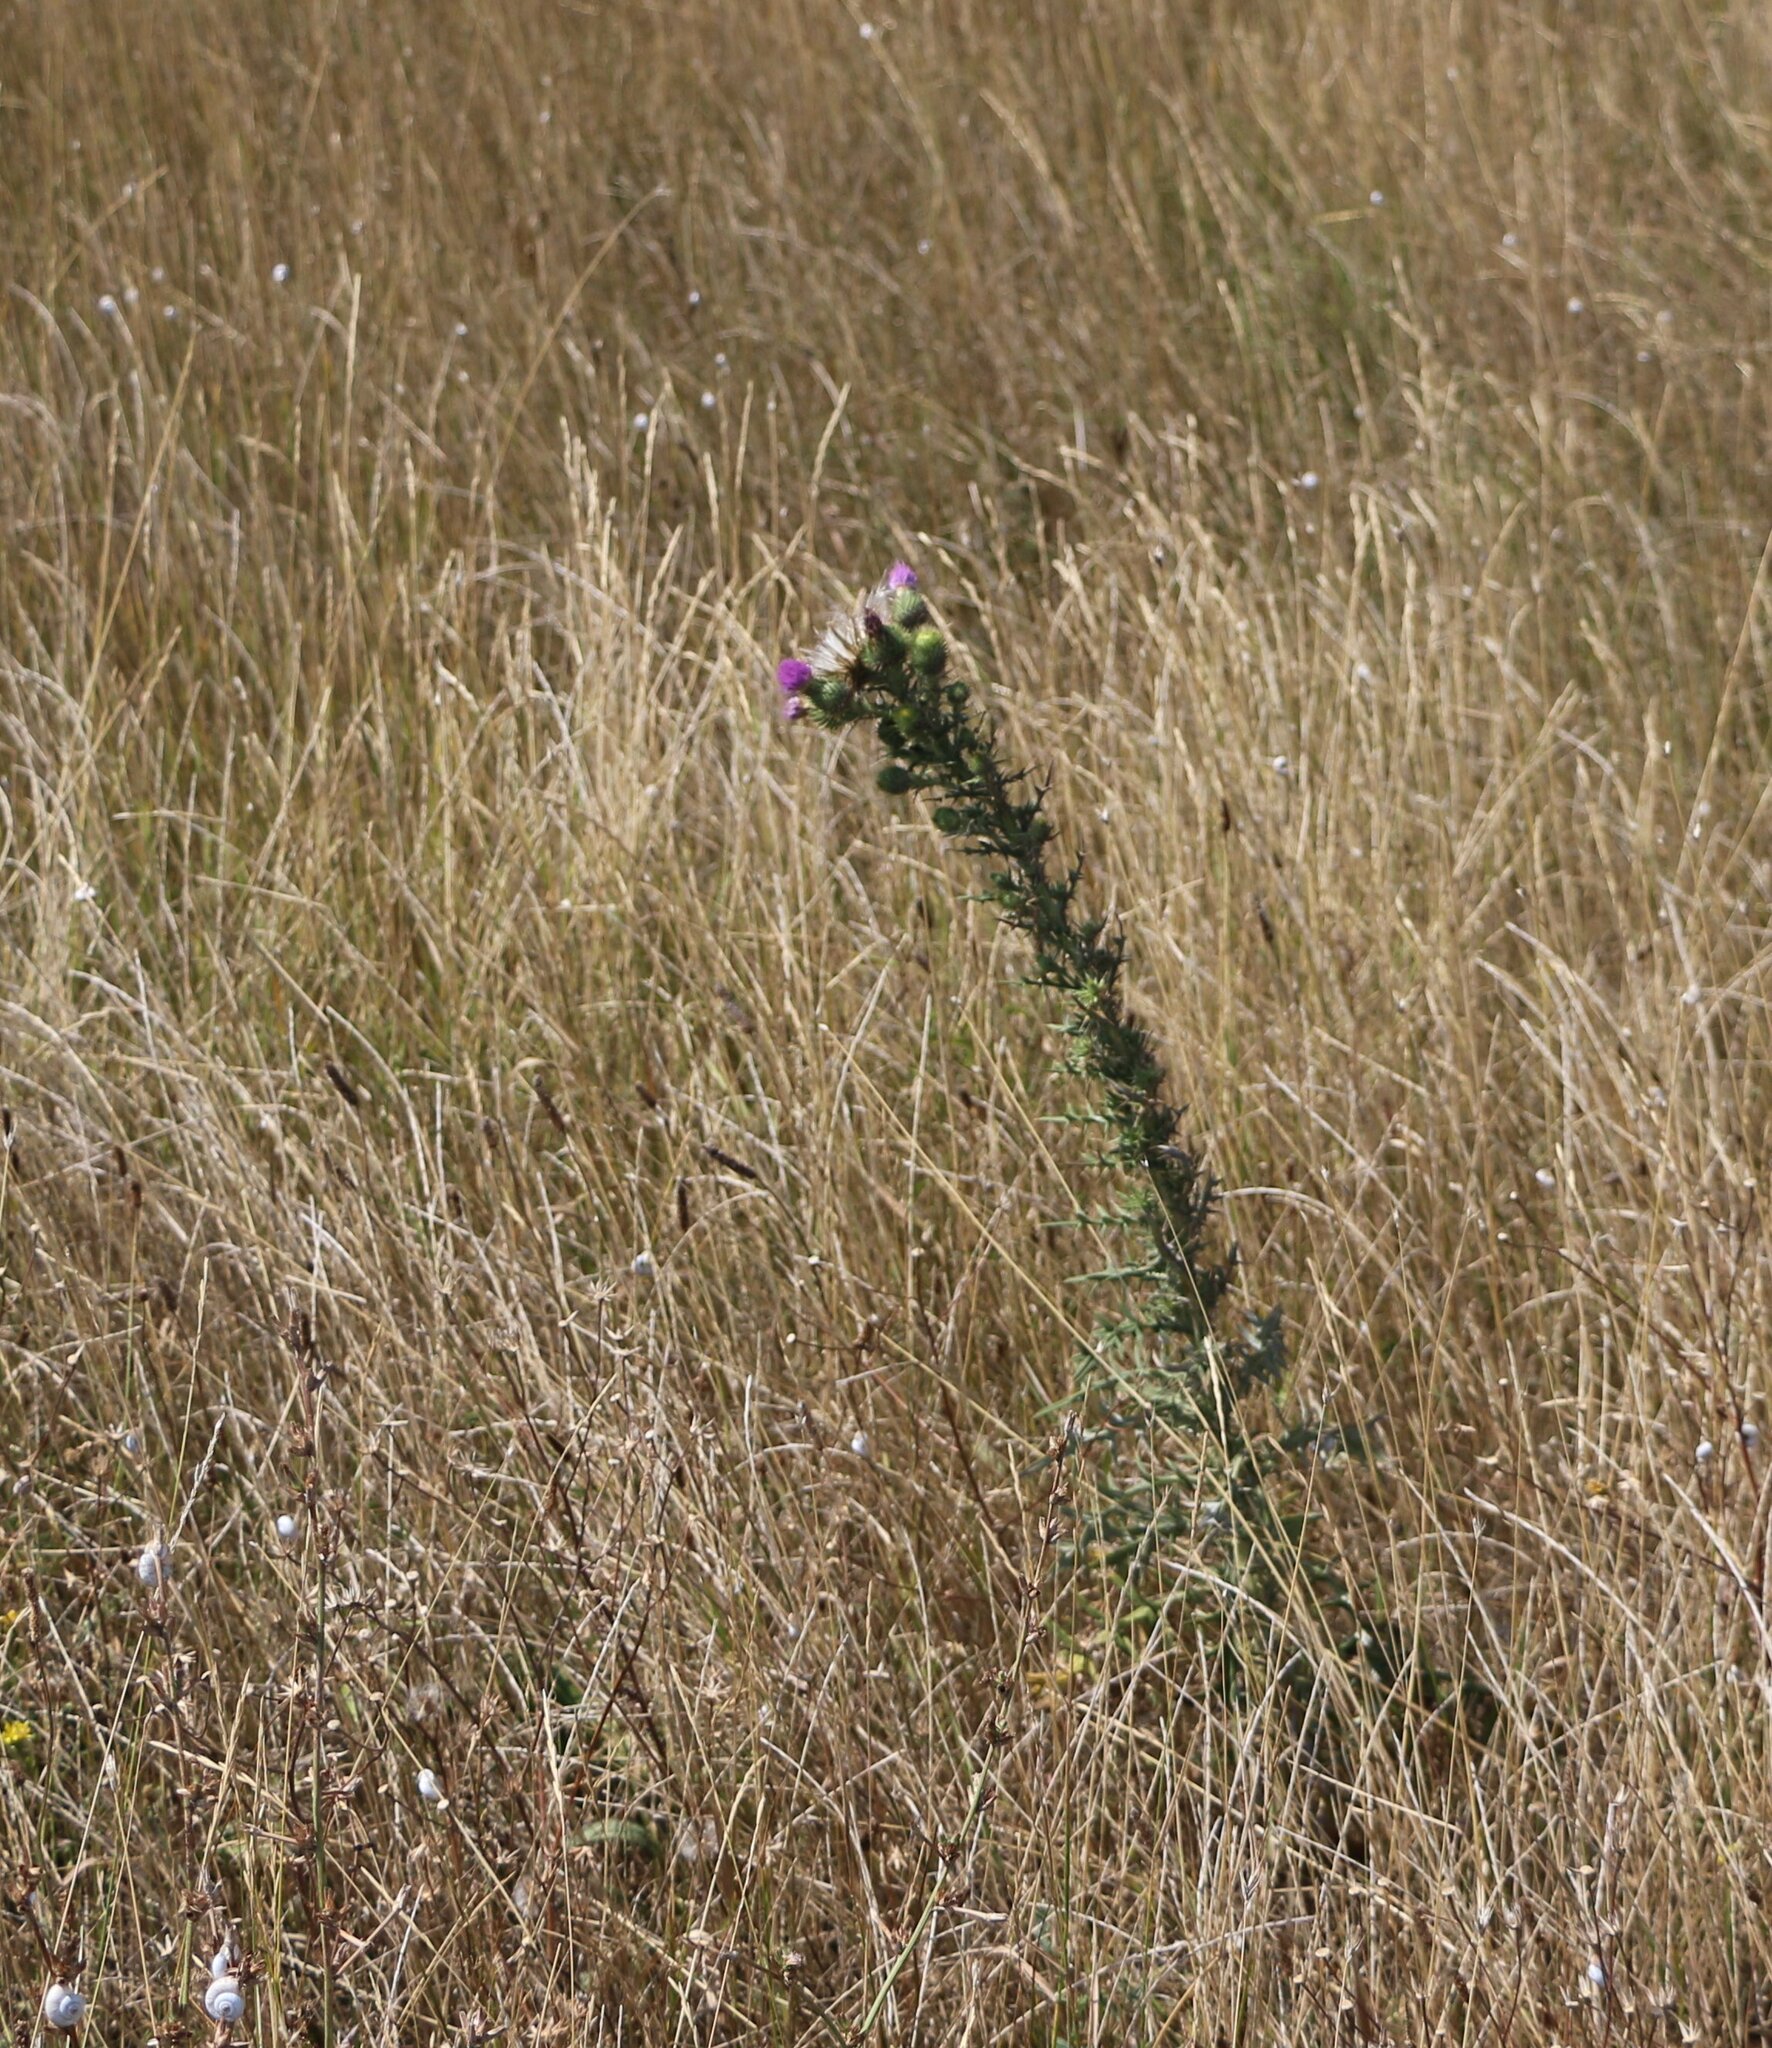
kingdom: Plantae
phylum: Tracheophyta
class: Magnoliopsida
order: Asterales
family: Asteraceae
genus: Cirsium
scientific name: Cirsium vulgare
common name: Bull thistle
